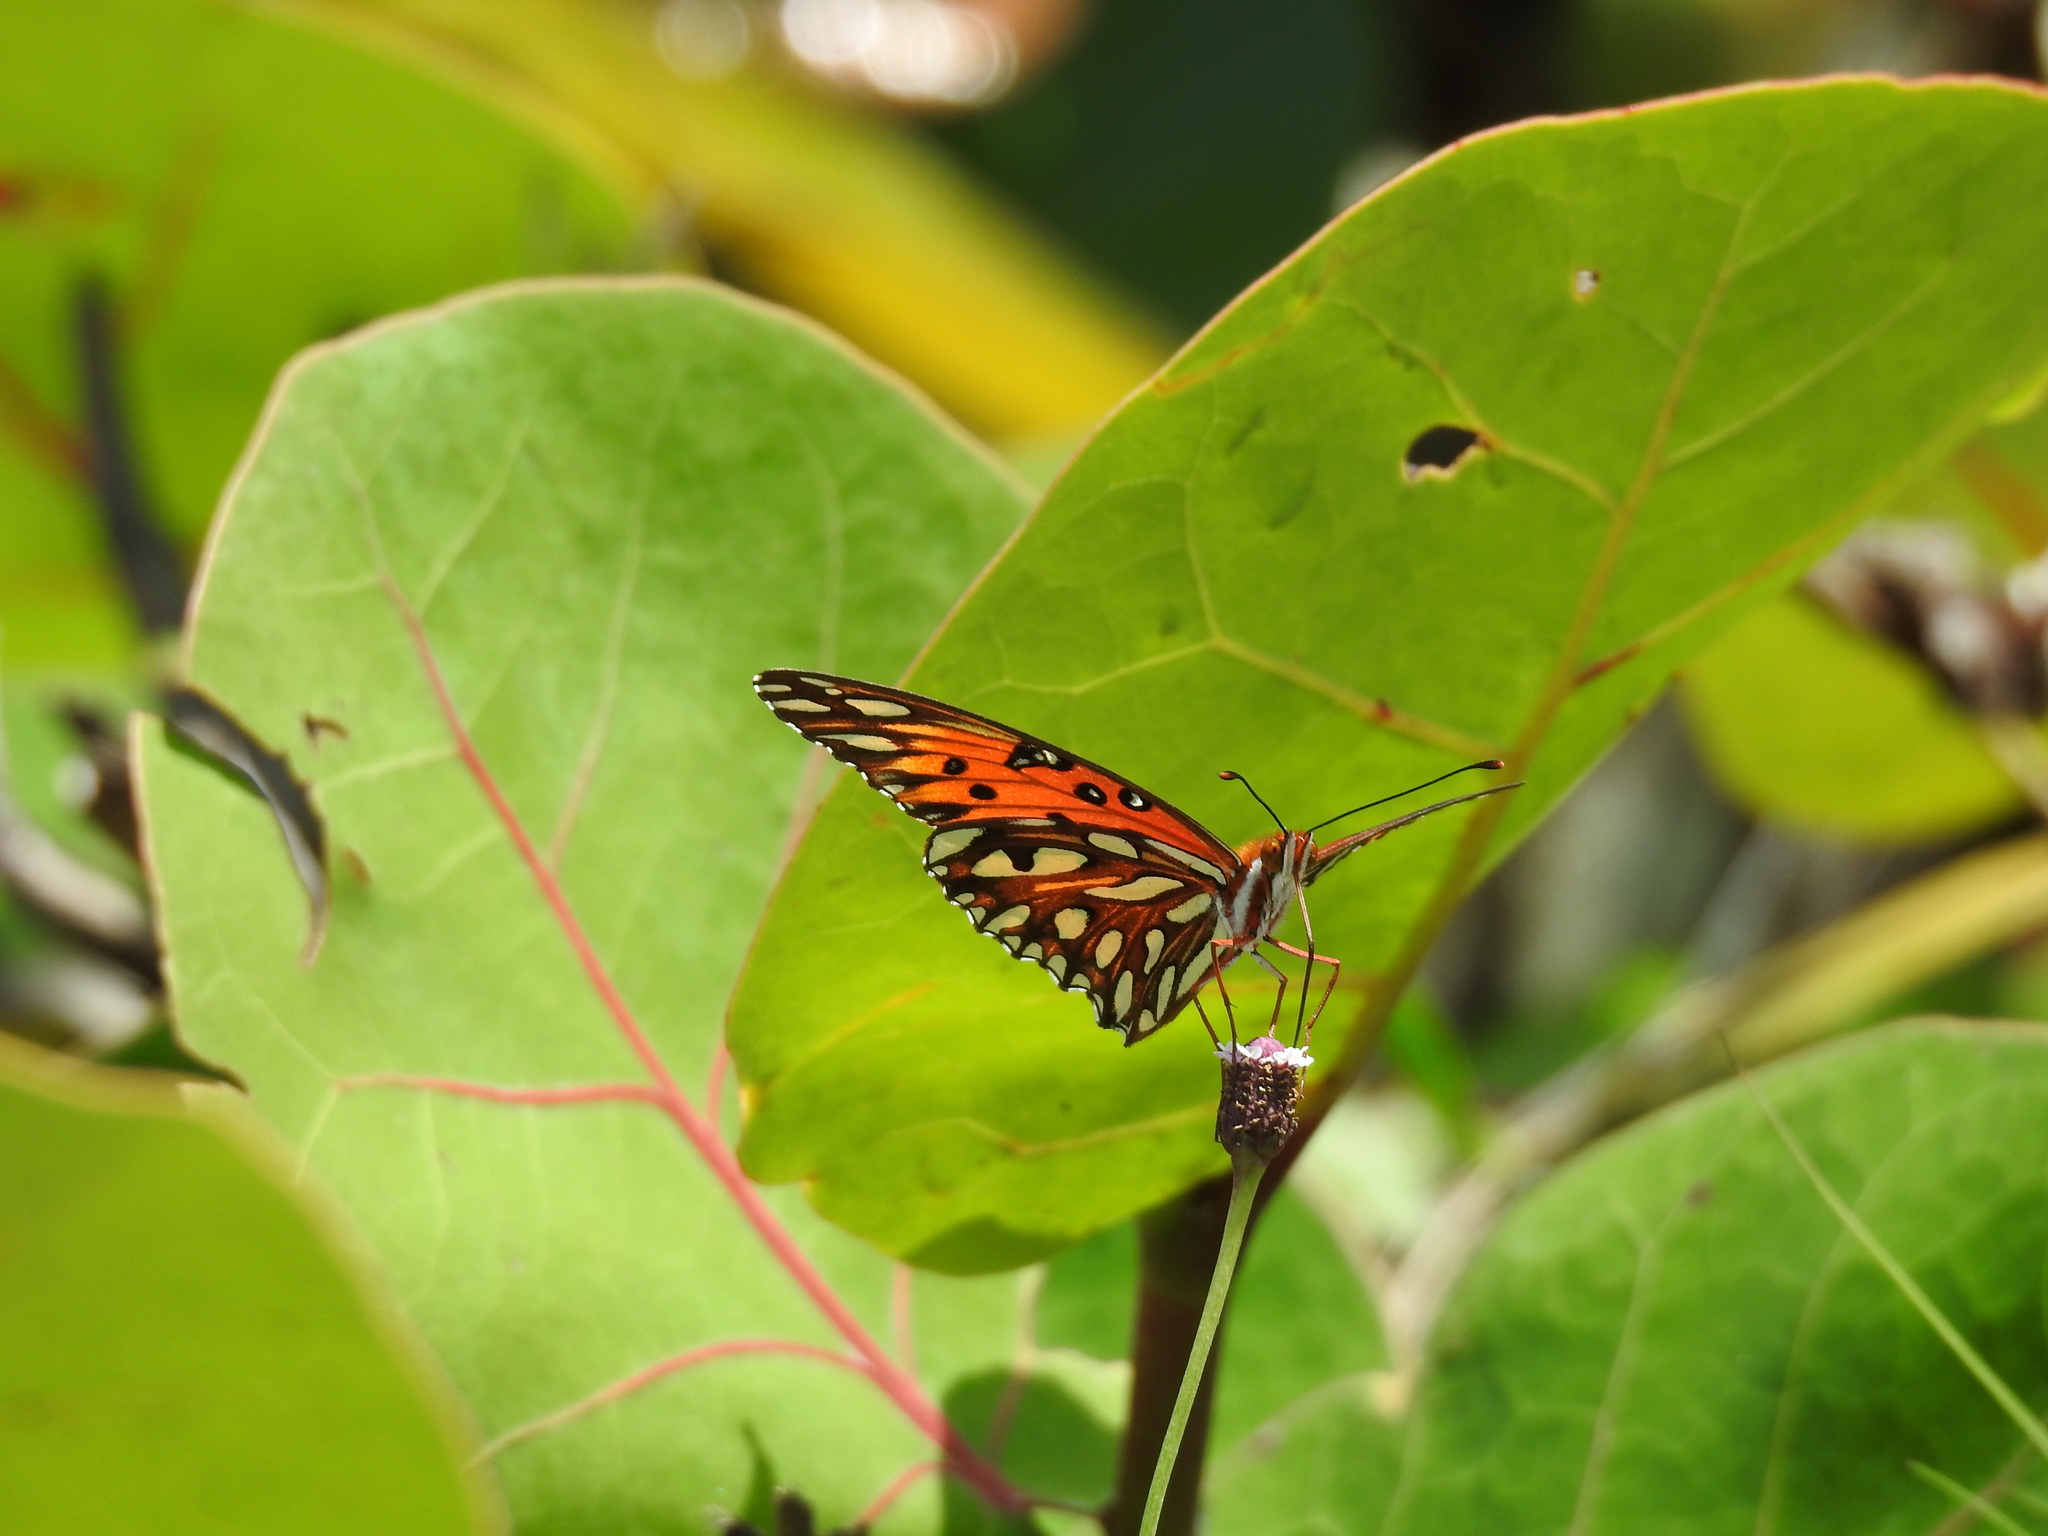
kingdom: Animalia
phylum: Arthropoda
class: Insecta
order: Lepidoptera
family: Nymphalidae
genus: Dione
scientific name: Dione vanillae
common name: Gulf fritillary
